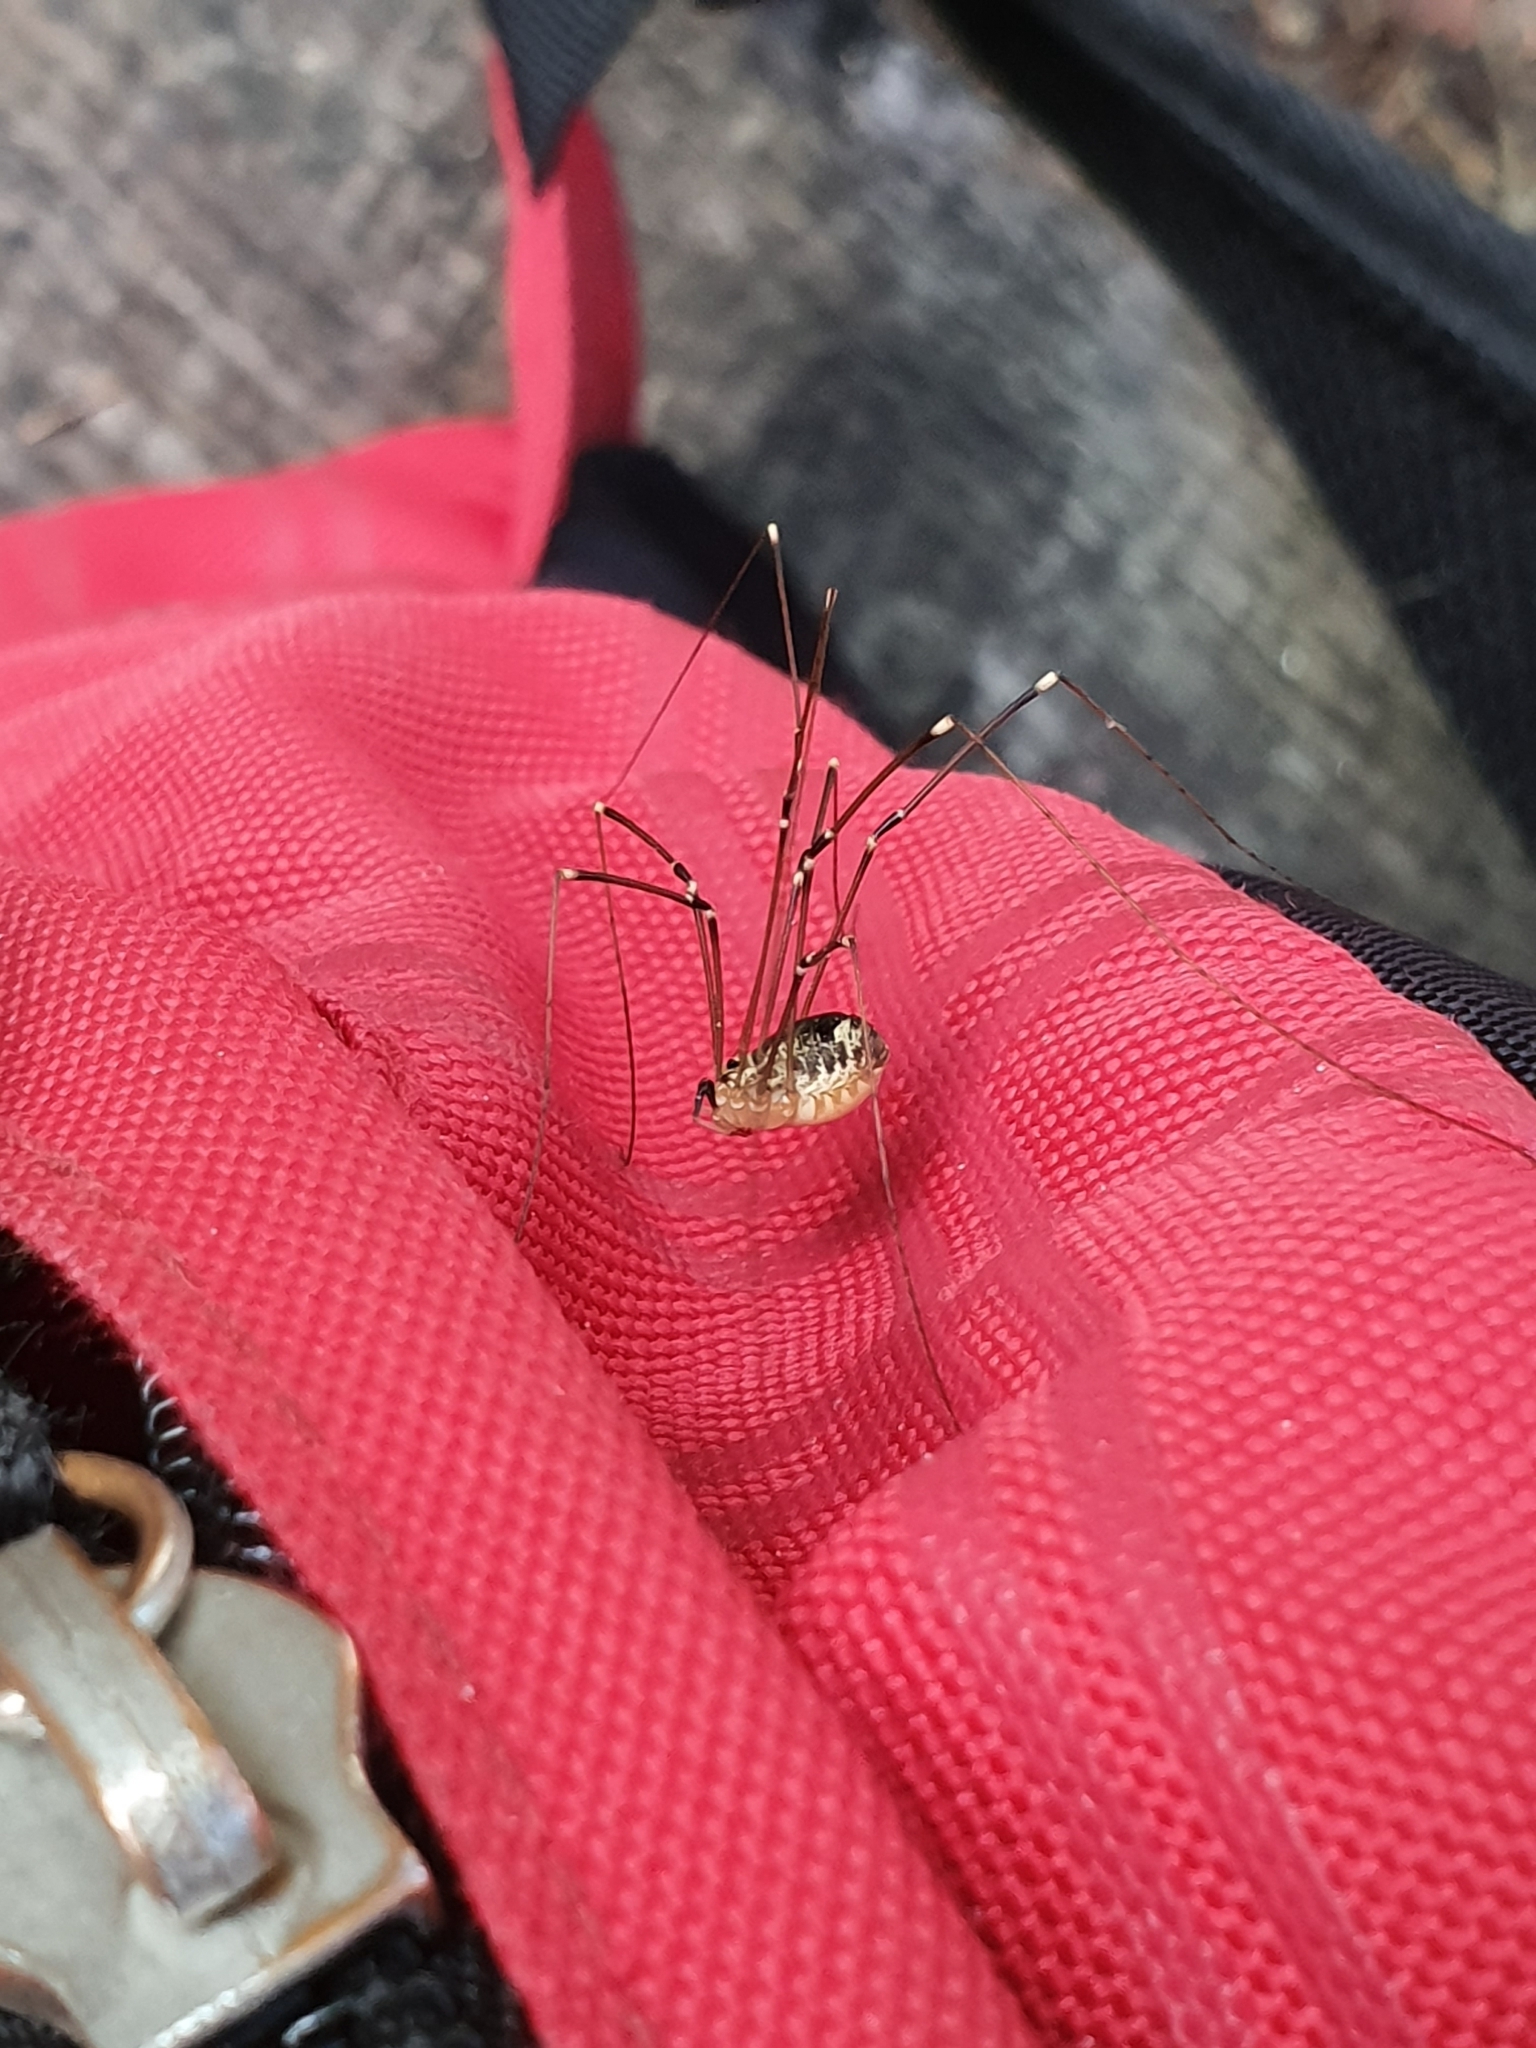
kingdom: Animalia
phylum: Arthropoda
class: Arachnida
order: Opiliones
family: Sclerosomatidae
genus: Leiobunum
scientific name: Leiobunum gracile
